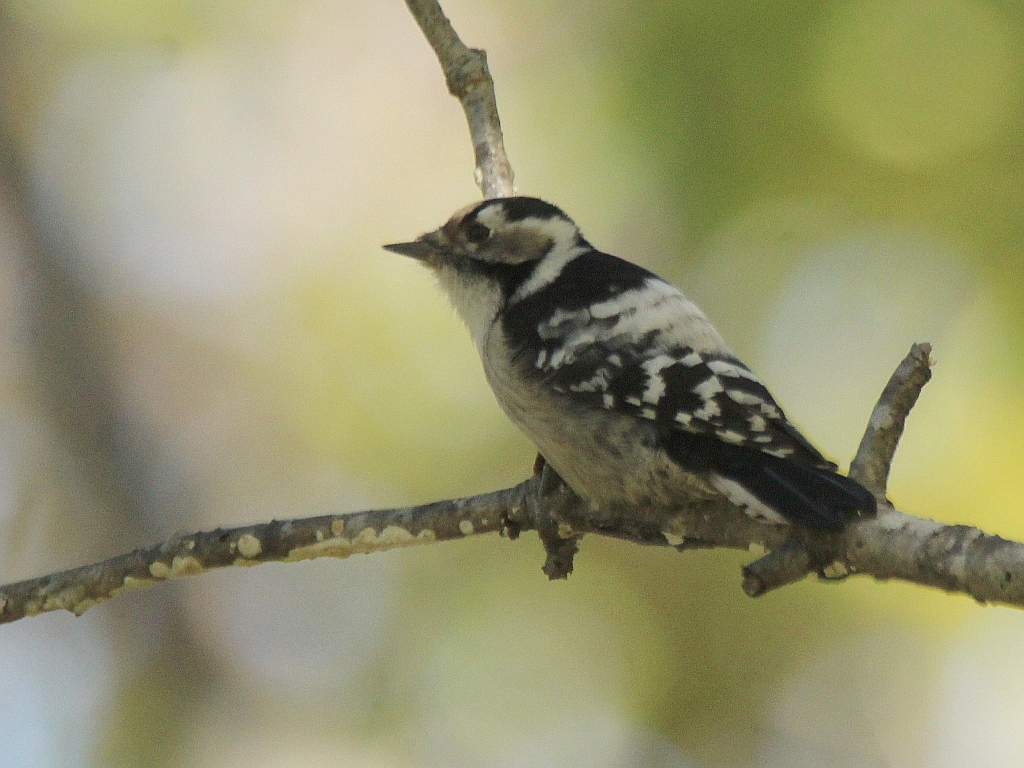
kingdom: Animalia
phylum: Chordata
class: Aves
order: Piciformes
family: Picidae
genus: Dryobates
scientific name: Dryobates minor
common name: Lesser spotted woodpecker
